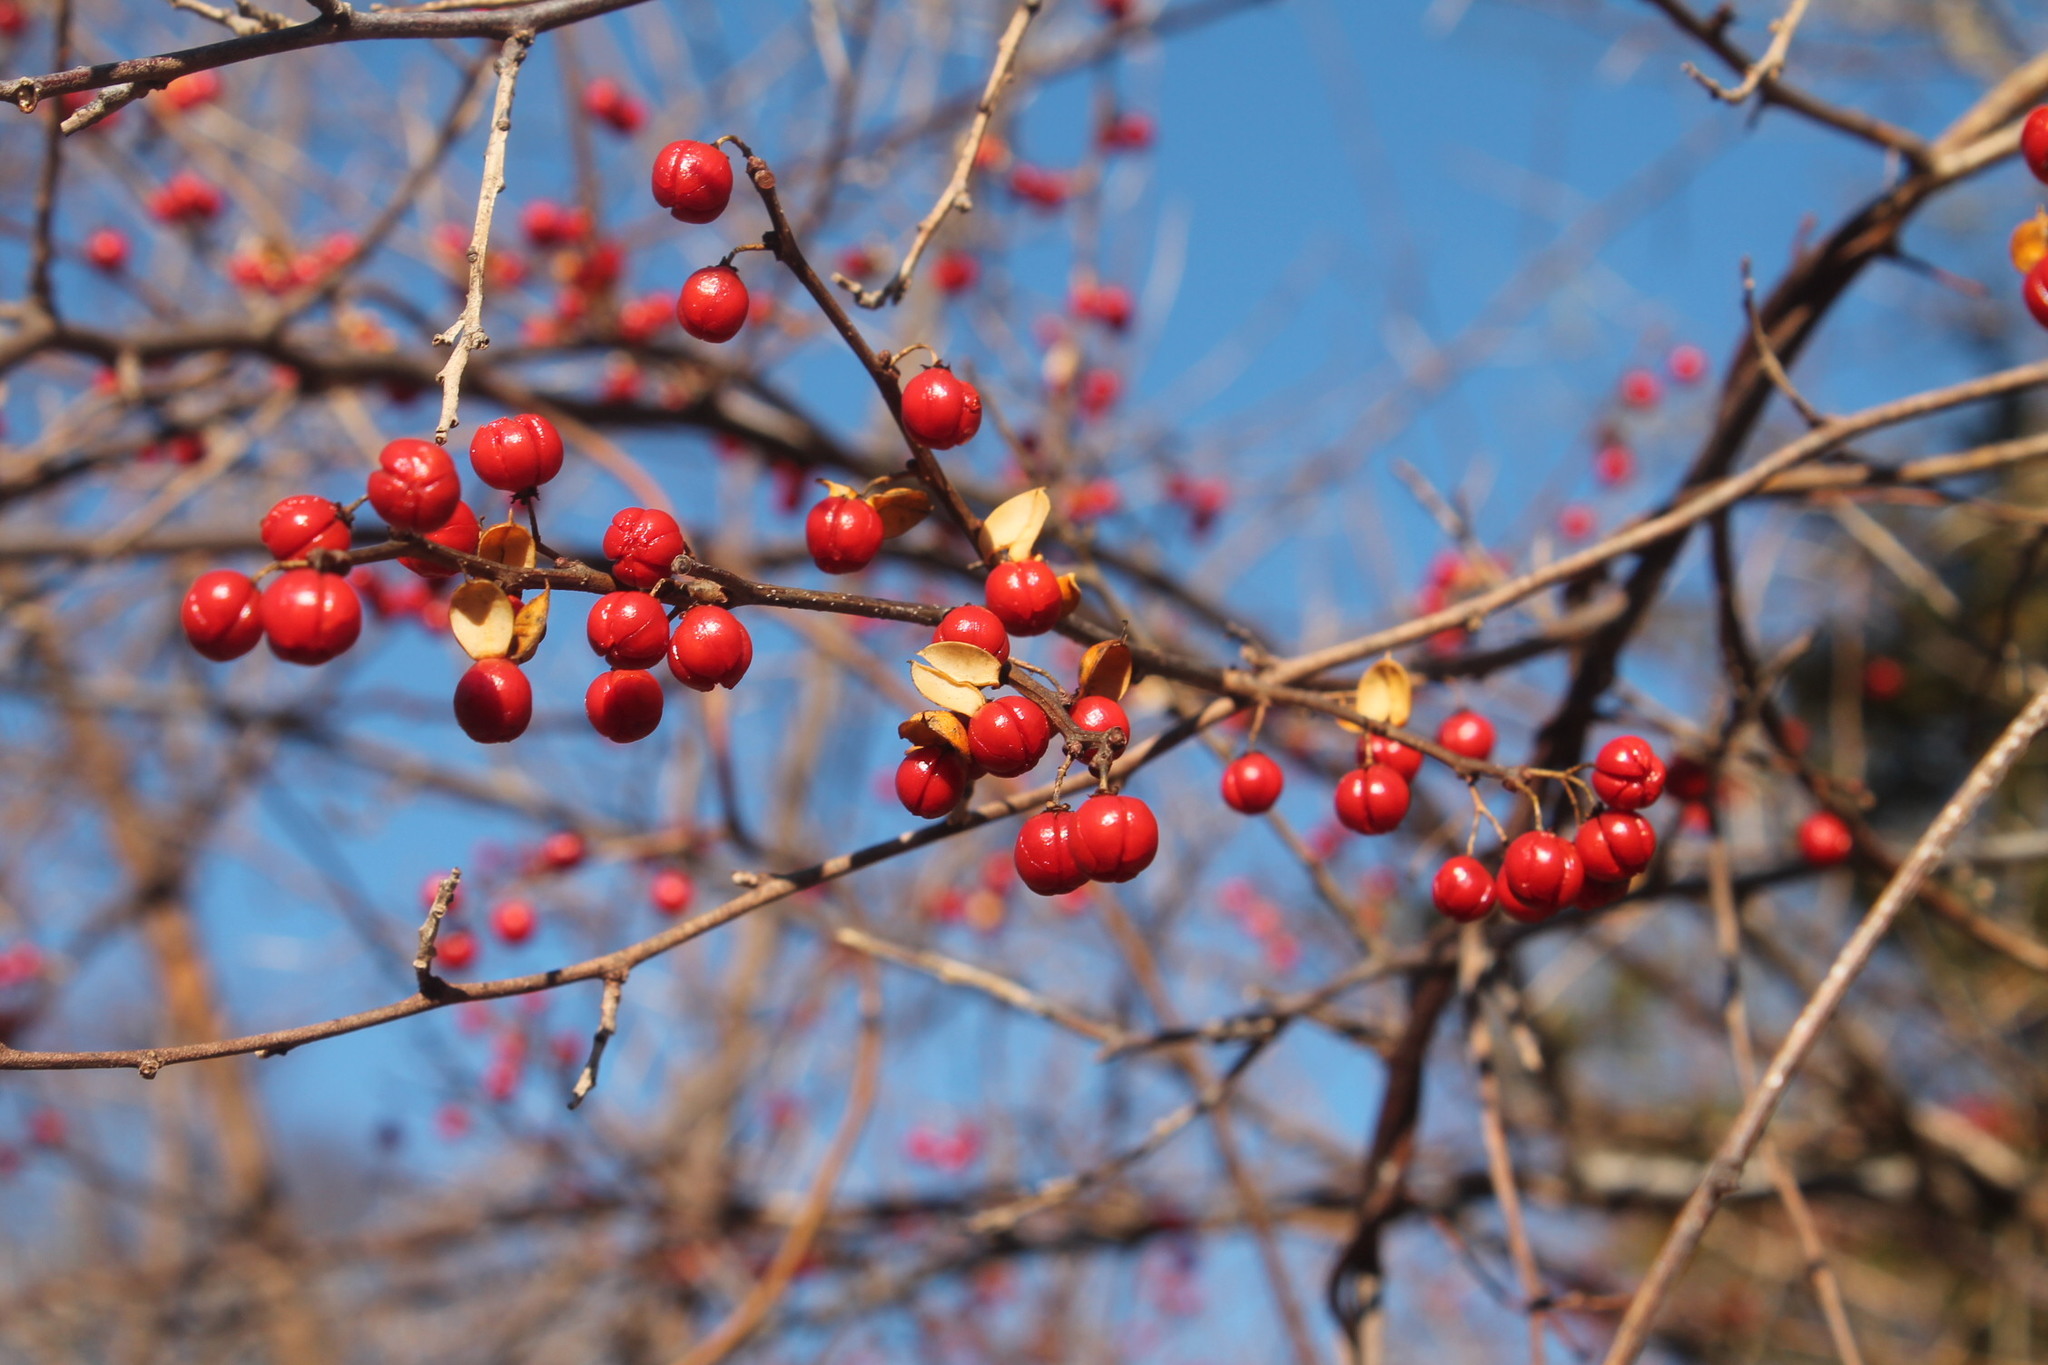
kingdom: Plantae
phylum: Tracheophyta
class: Magnoliopsida
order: Celastrales
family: Celastraceae
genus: Celastrus
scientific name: Celastrus orbiculatus
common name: Oriental bittersweet
